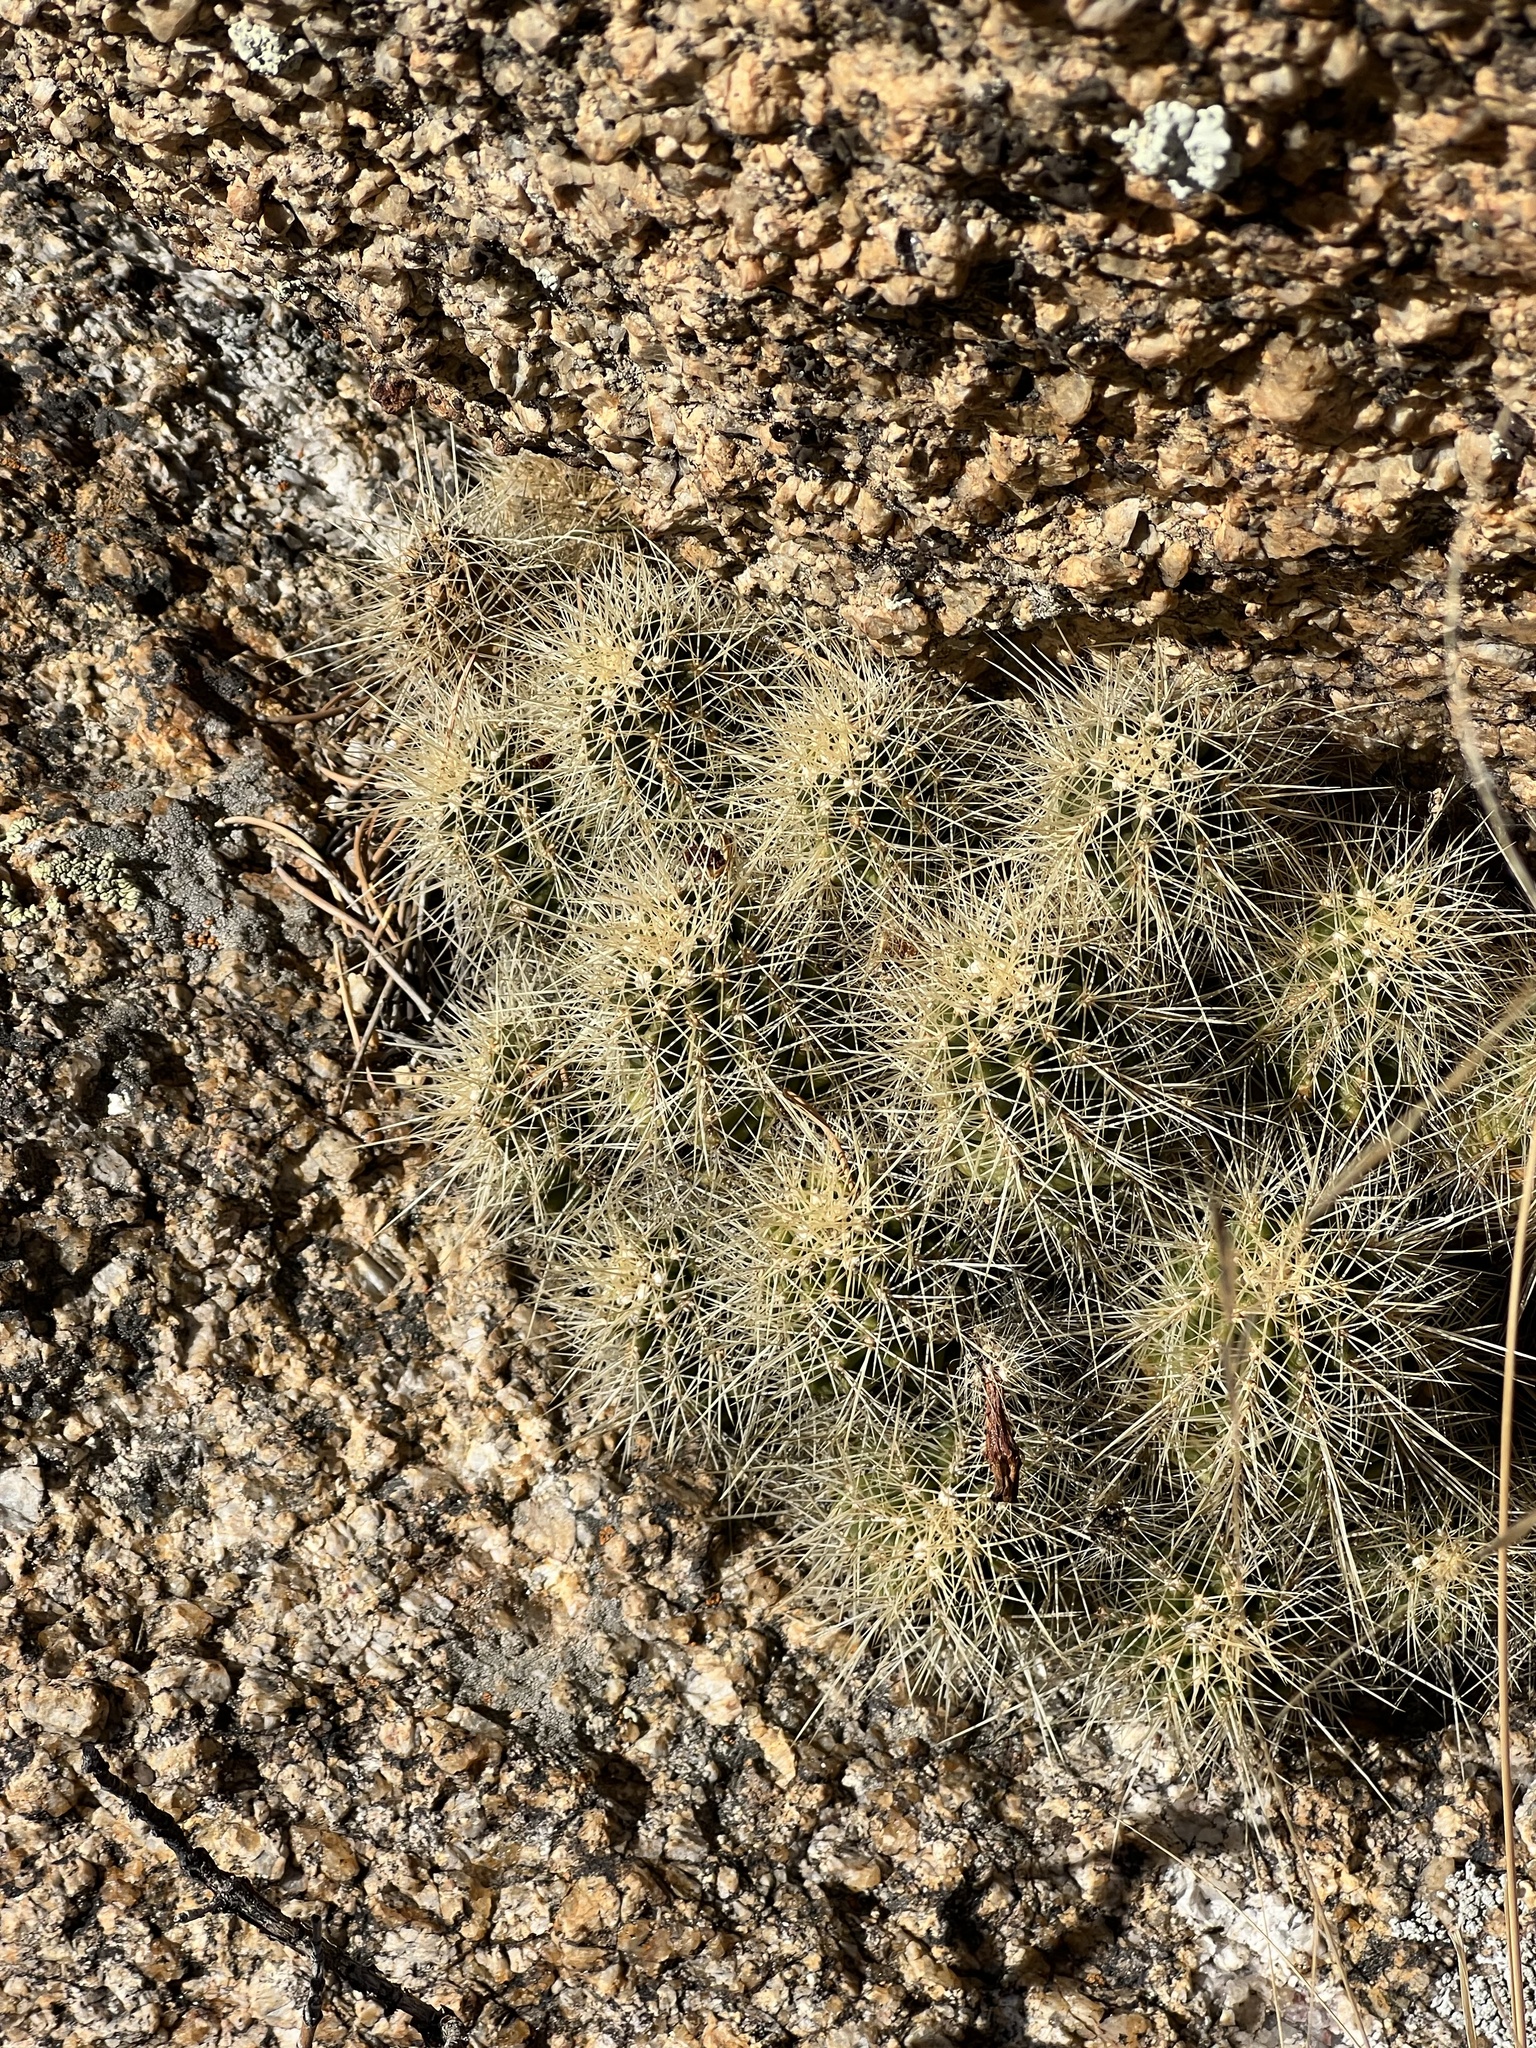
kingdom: Plantae
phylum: Tracheophyta
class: Magnoliopsida
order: Caryophyllales
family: Cactaceae
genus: Echinocereus
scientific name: Echinocereus bakeri
